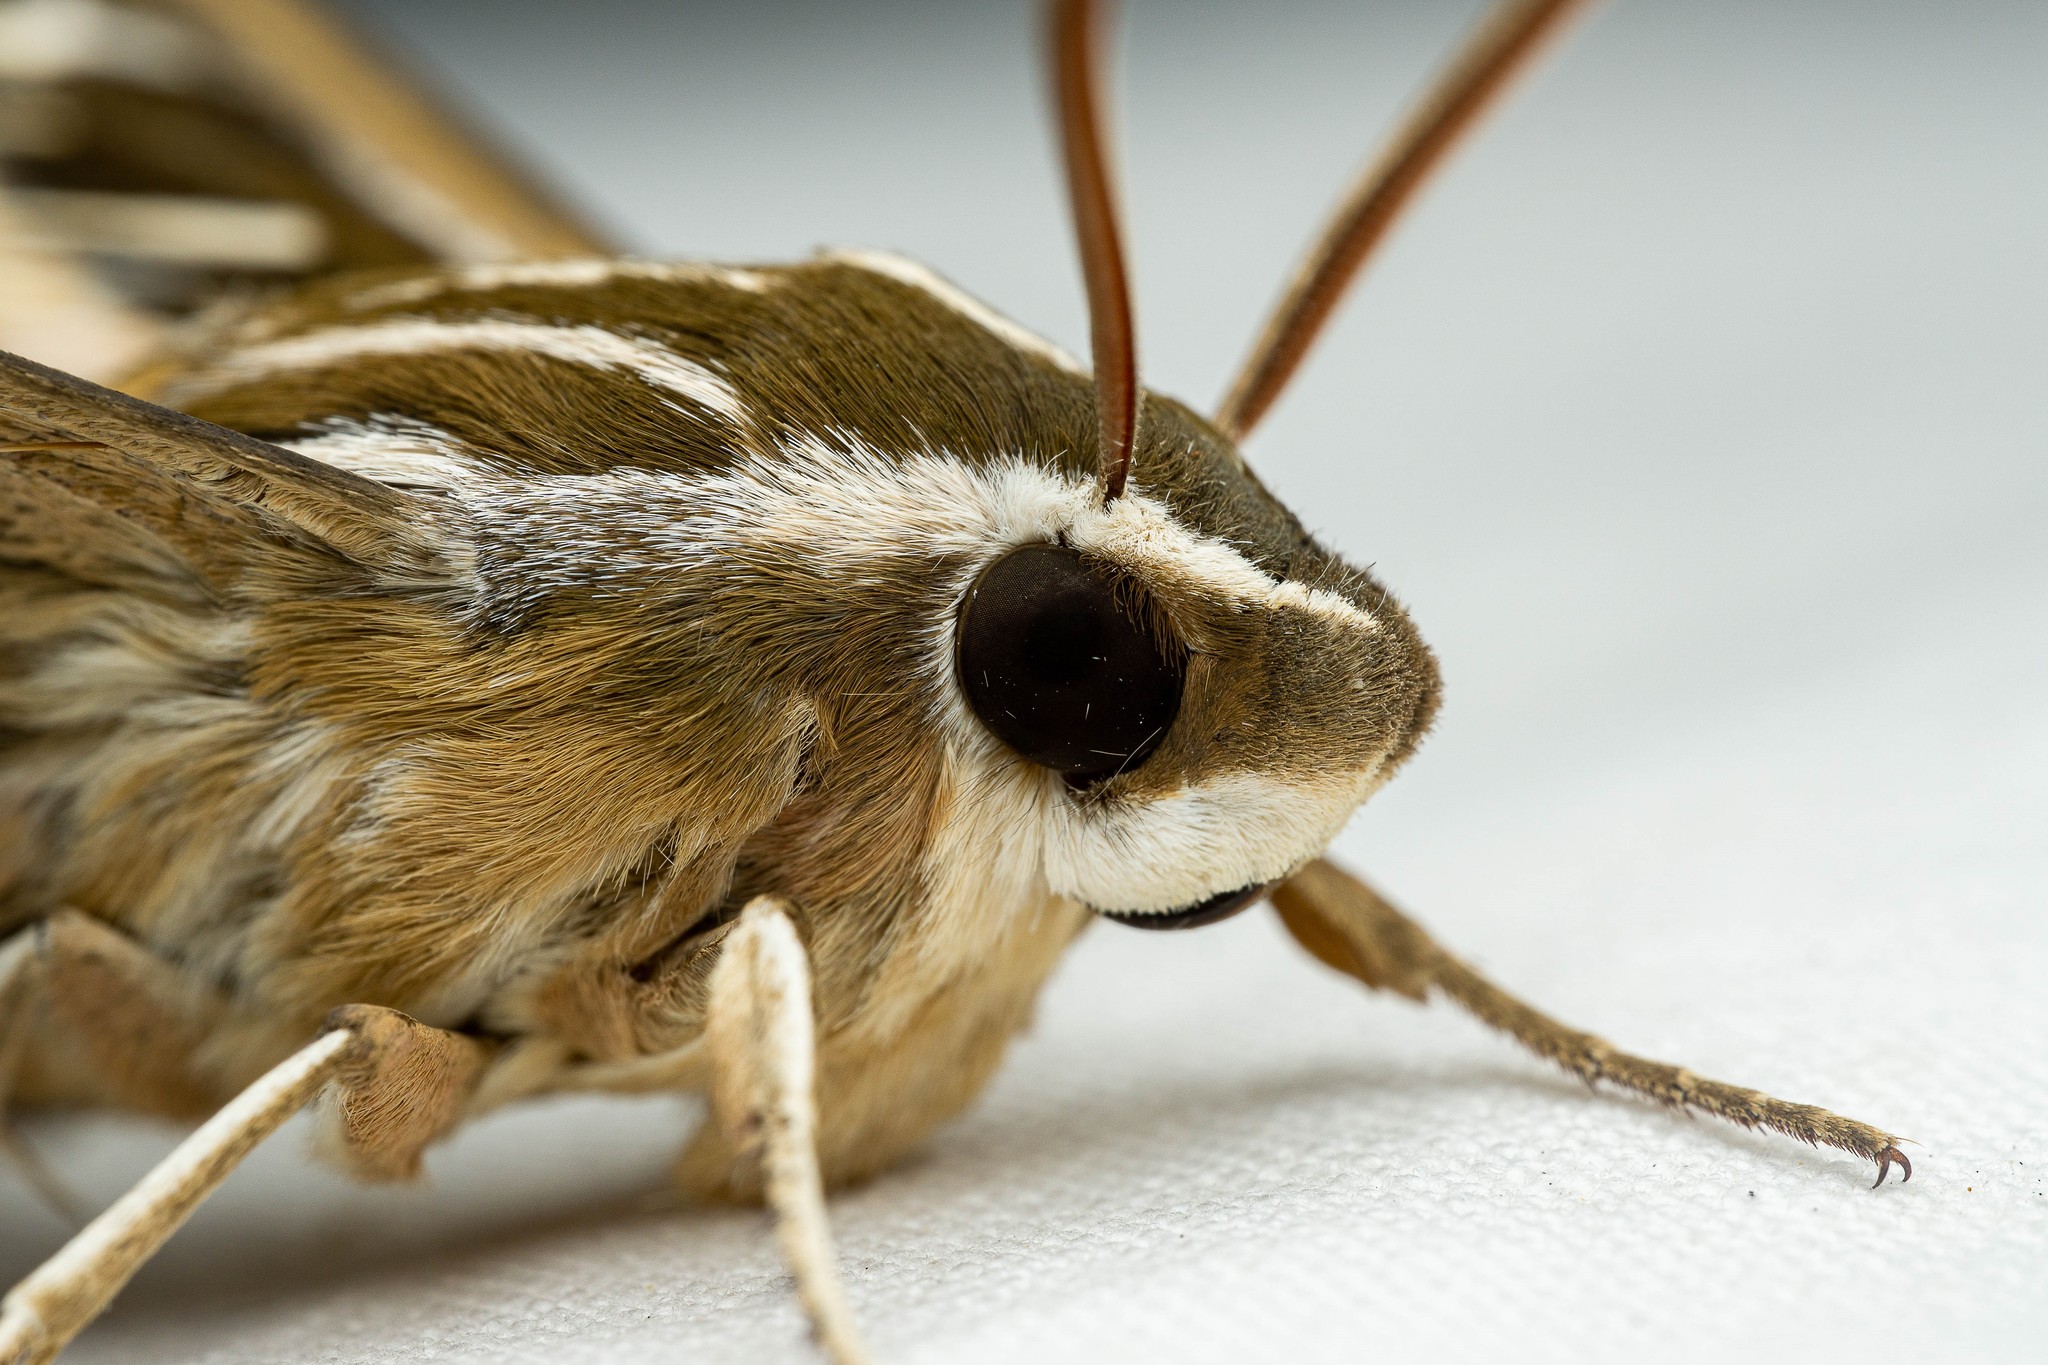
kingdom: Animalia
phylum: Arthropoda
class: Insecta
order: Lepidoptera
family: Sphingidae
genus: Hyles
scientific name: Hyles lineata
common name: White-lined sphinx
